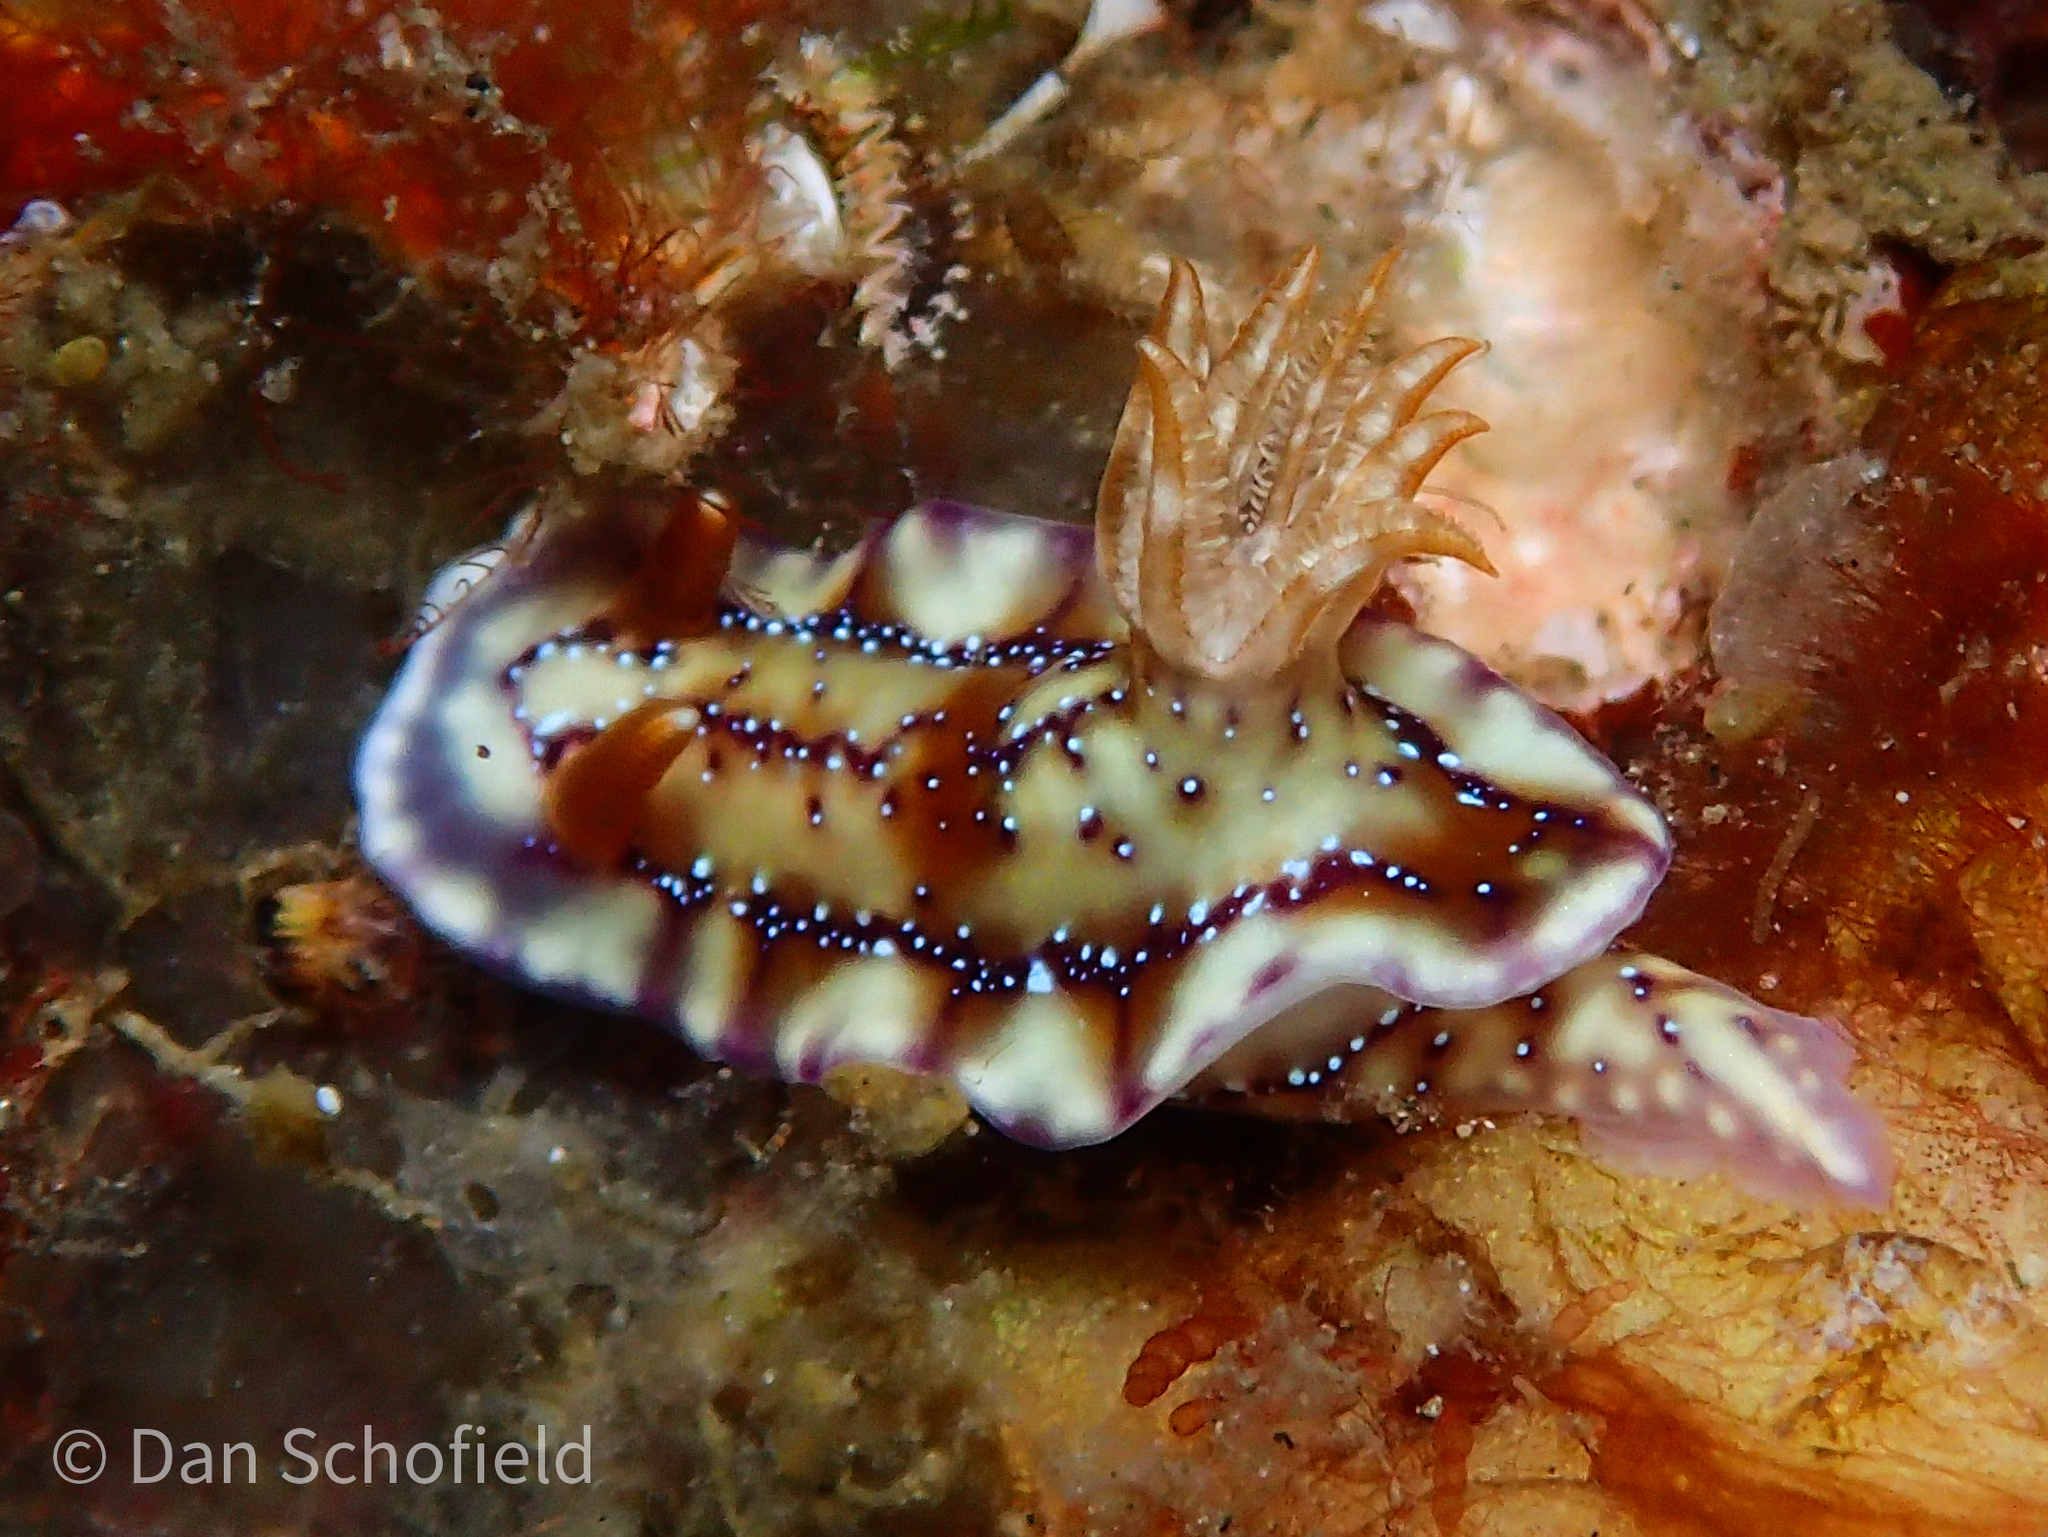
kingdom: Animalia
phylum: Mollusca
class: Gastropoda
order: Nudibranchia
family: Chromodorididae
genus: Hypselodoris
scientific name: Hypselodoris krakatoa
